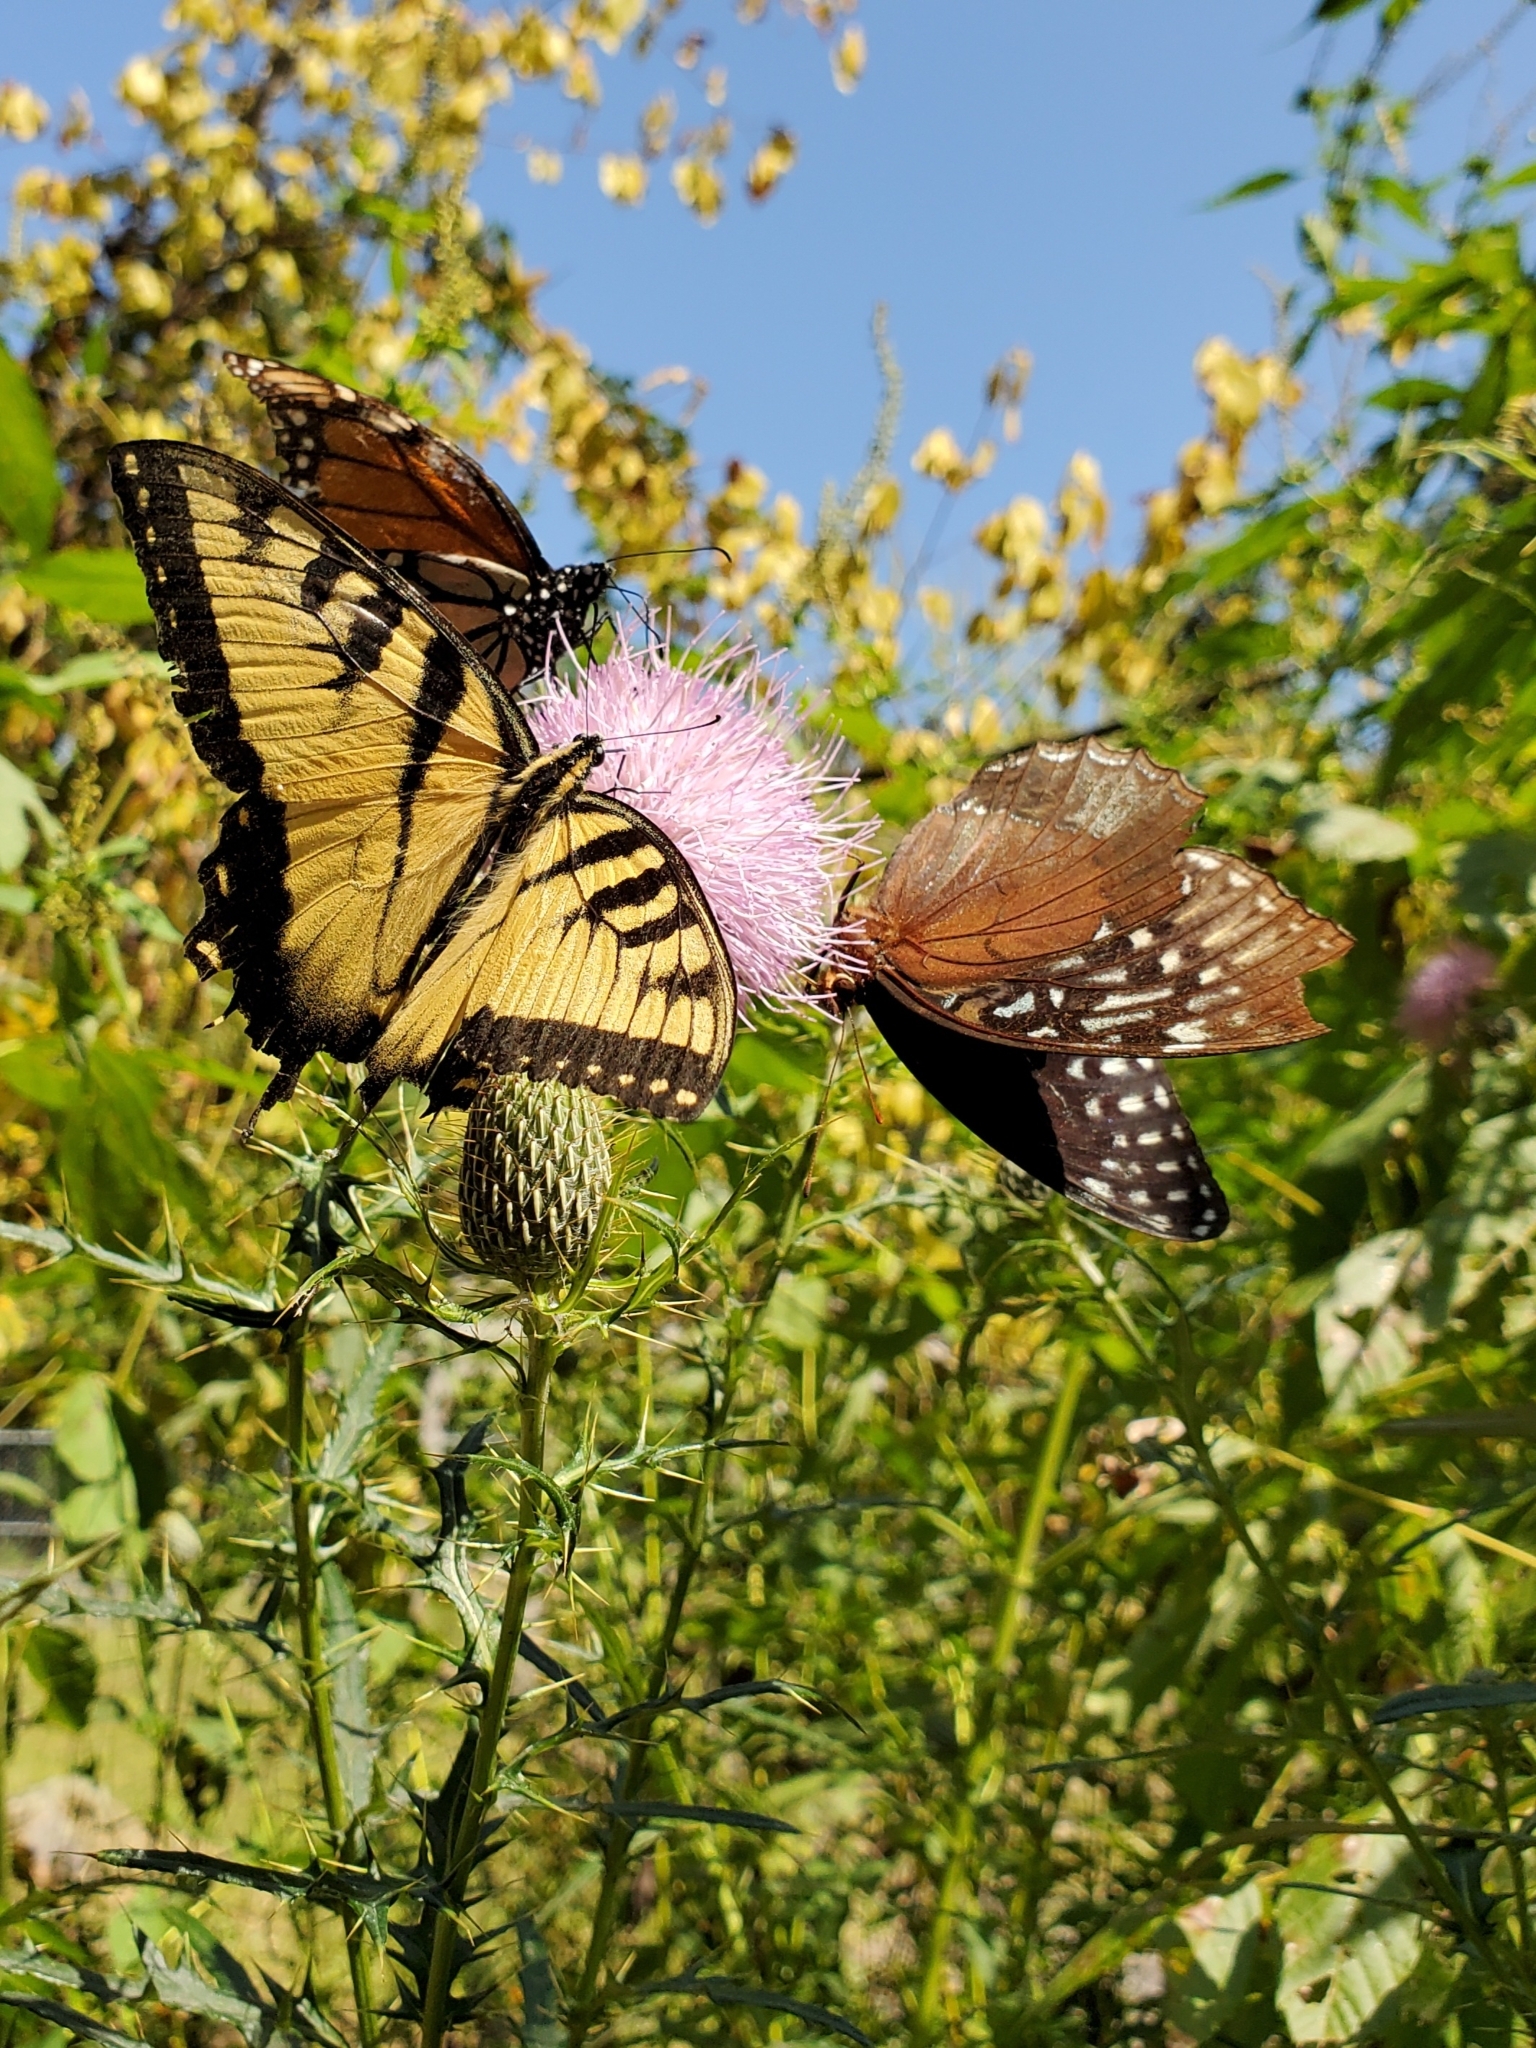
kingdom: Animalia
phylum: Arthropoda
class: Insecta
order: Lepidoptera
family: Papilionidae
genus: Papilio
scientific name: Papilio glaucus
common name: Tiger swallowtail
